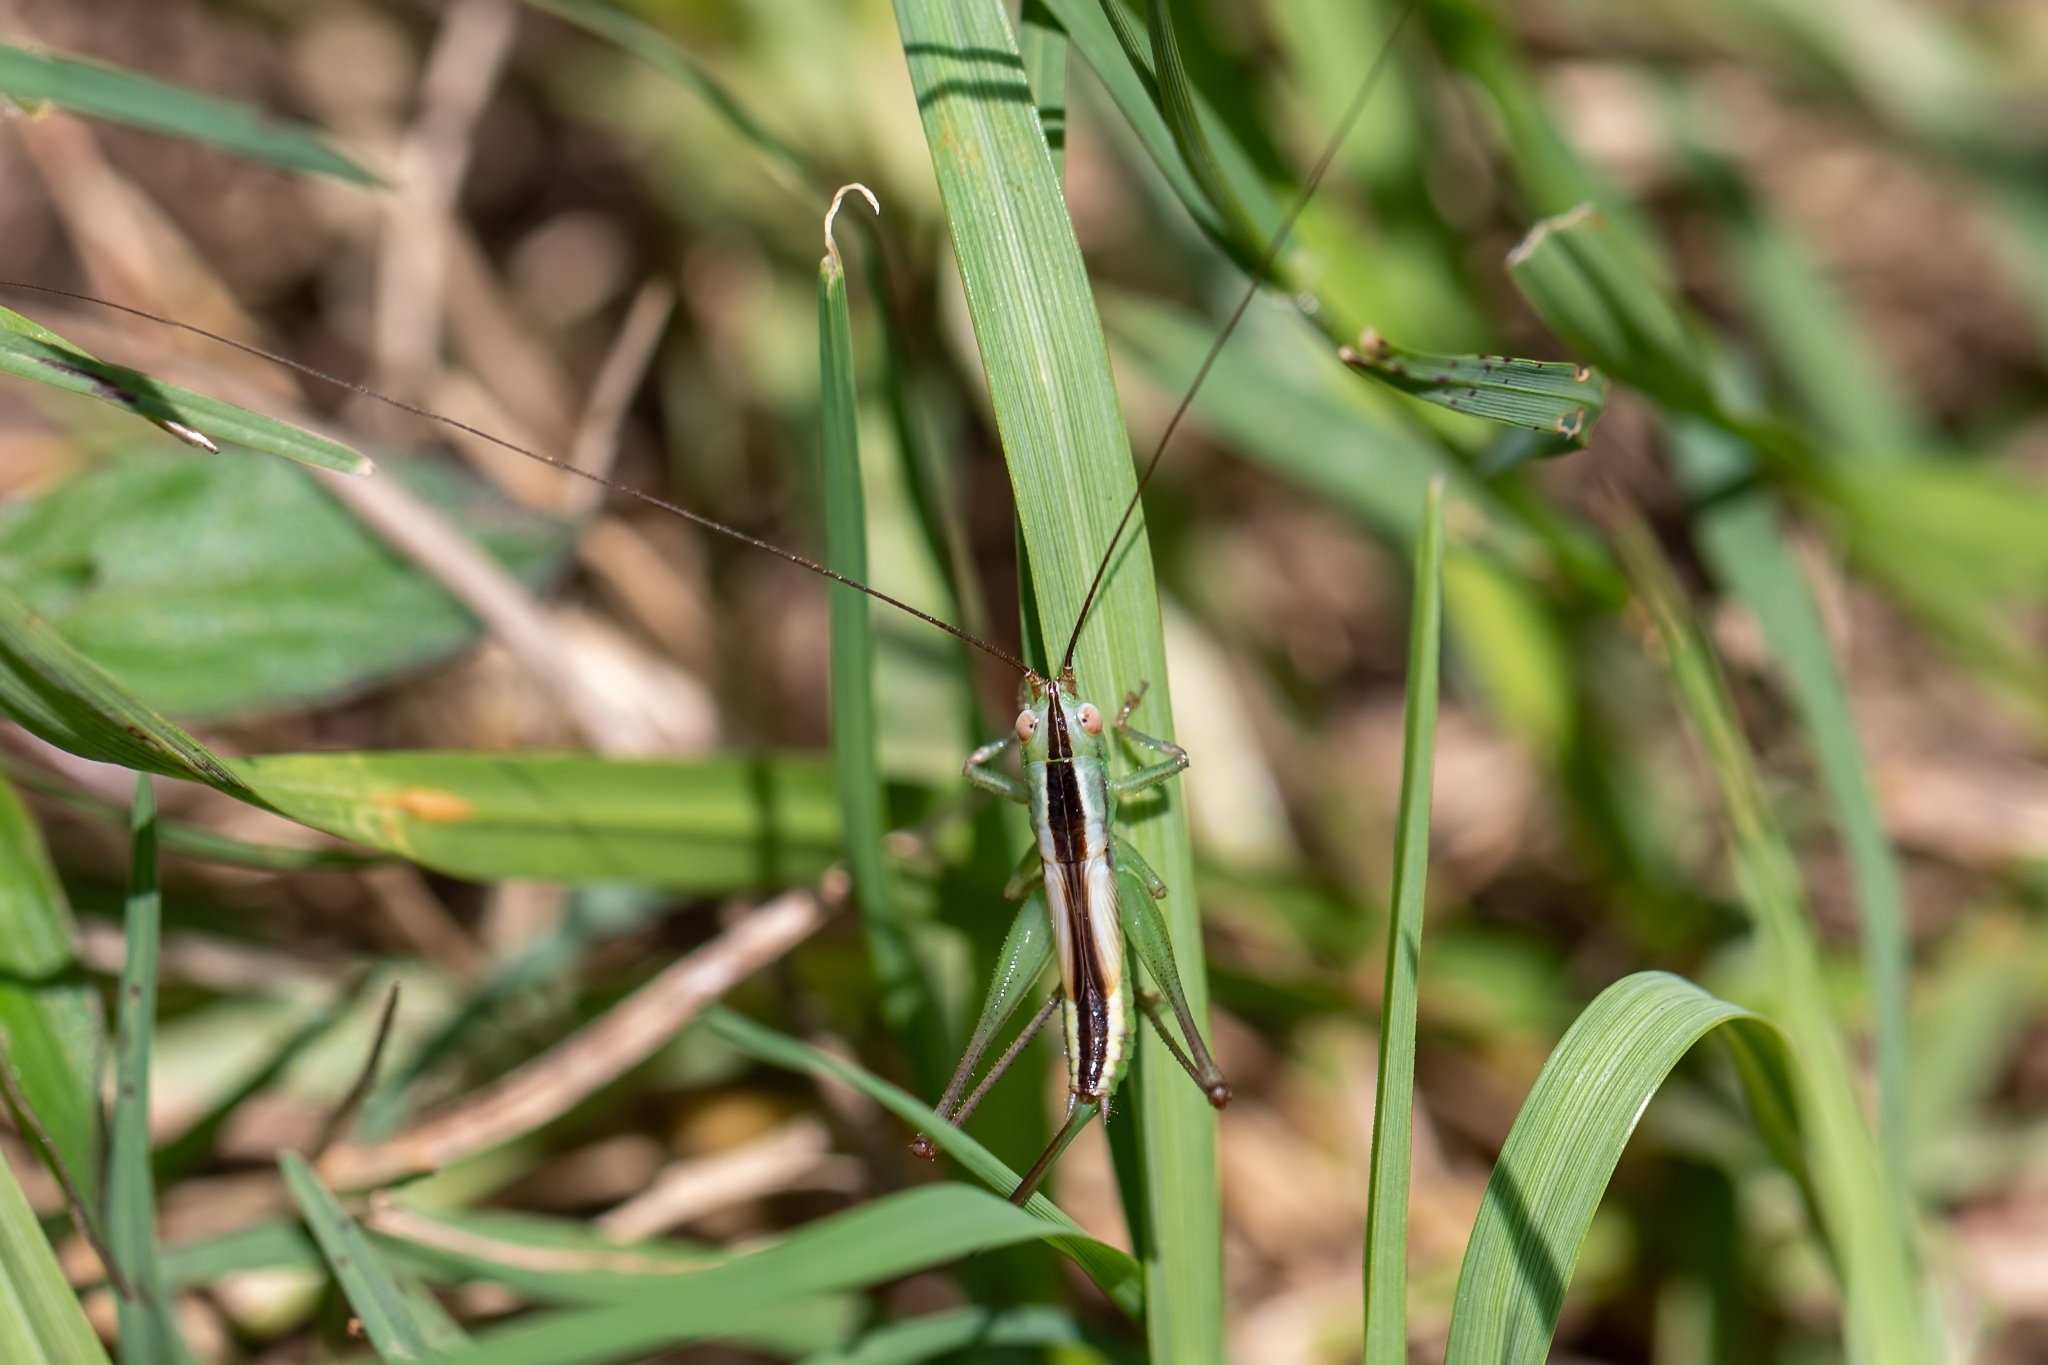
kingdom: Animalia
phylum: Arthropoda
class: Insecta
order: Orthoptera
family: Tettigoniidae
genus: Conocephalus
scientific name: Conocephalus gracillimus
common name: Graceful meadow katydid
